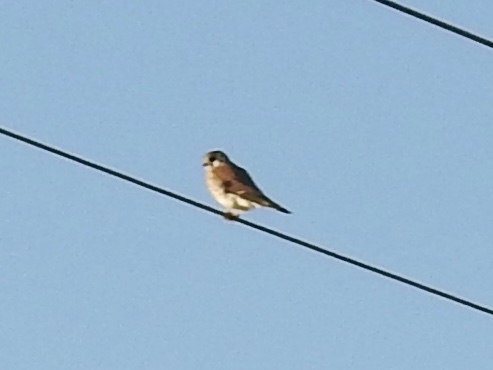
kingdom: Animalia
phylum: Chordata
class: Aves
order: Falconiformes
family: Falconidae
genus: Falco
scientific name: Falco sparverius
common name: American kestrel
